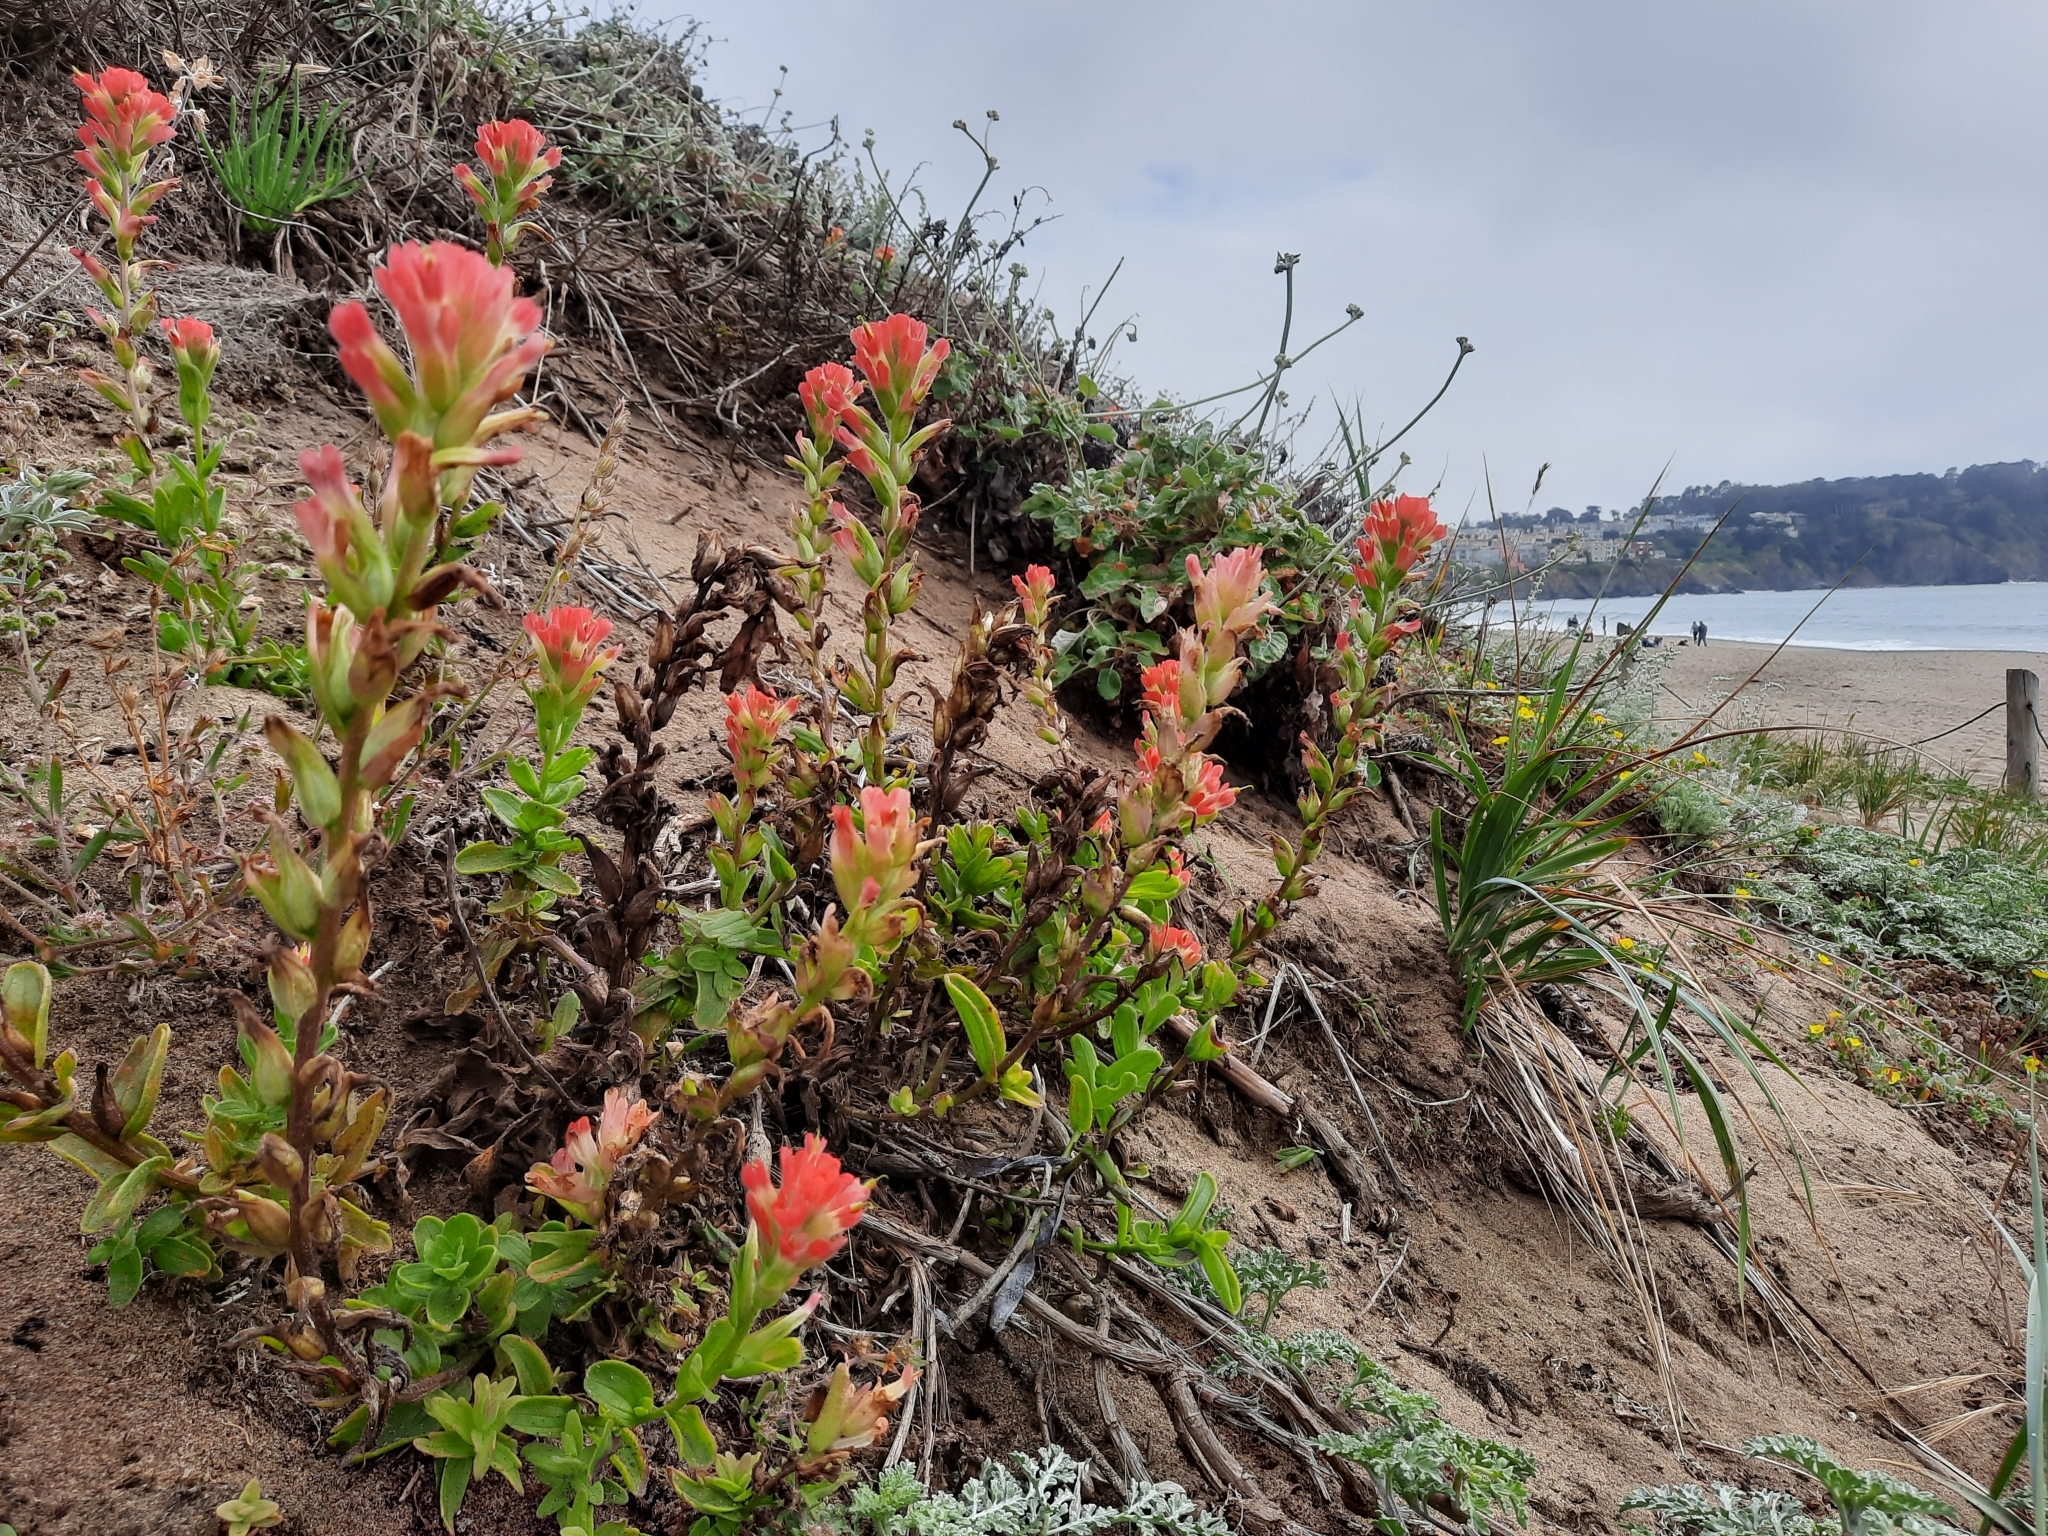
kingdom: Plantae
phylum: Tracheophyta
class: Magnoliopsida
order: Lamiales
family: Orobanchaceae
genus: Castilleja
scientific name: Castilleja affinis
